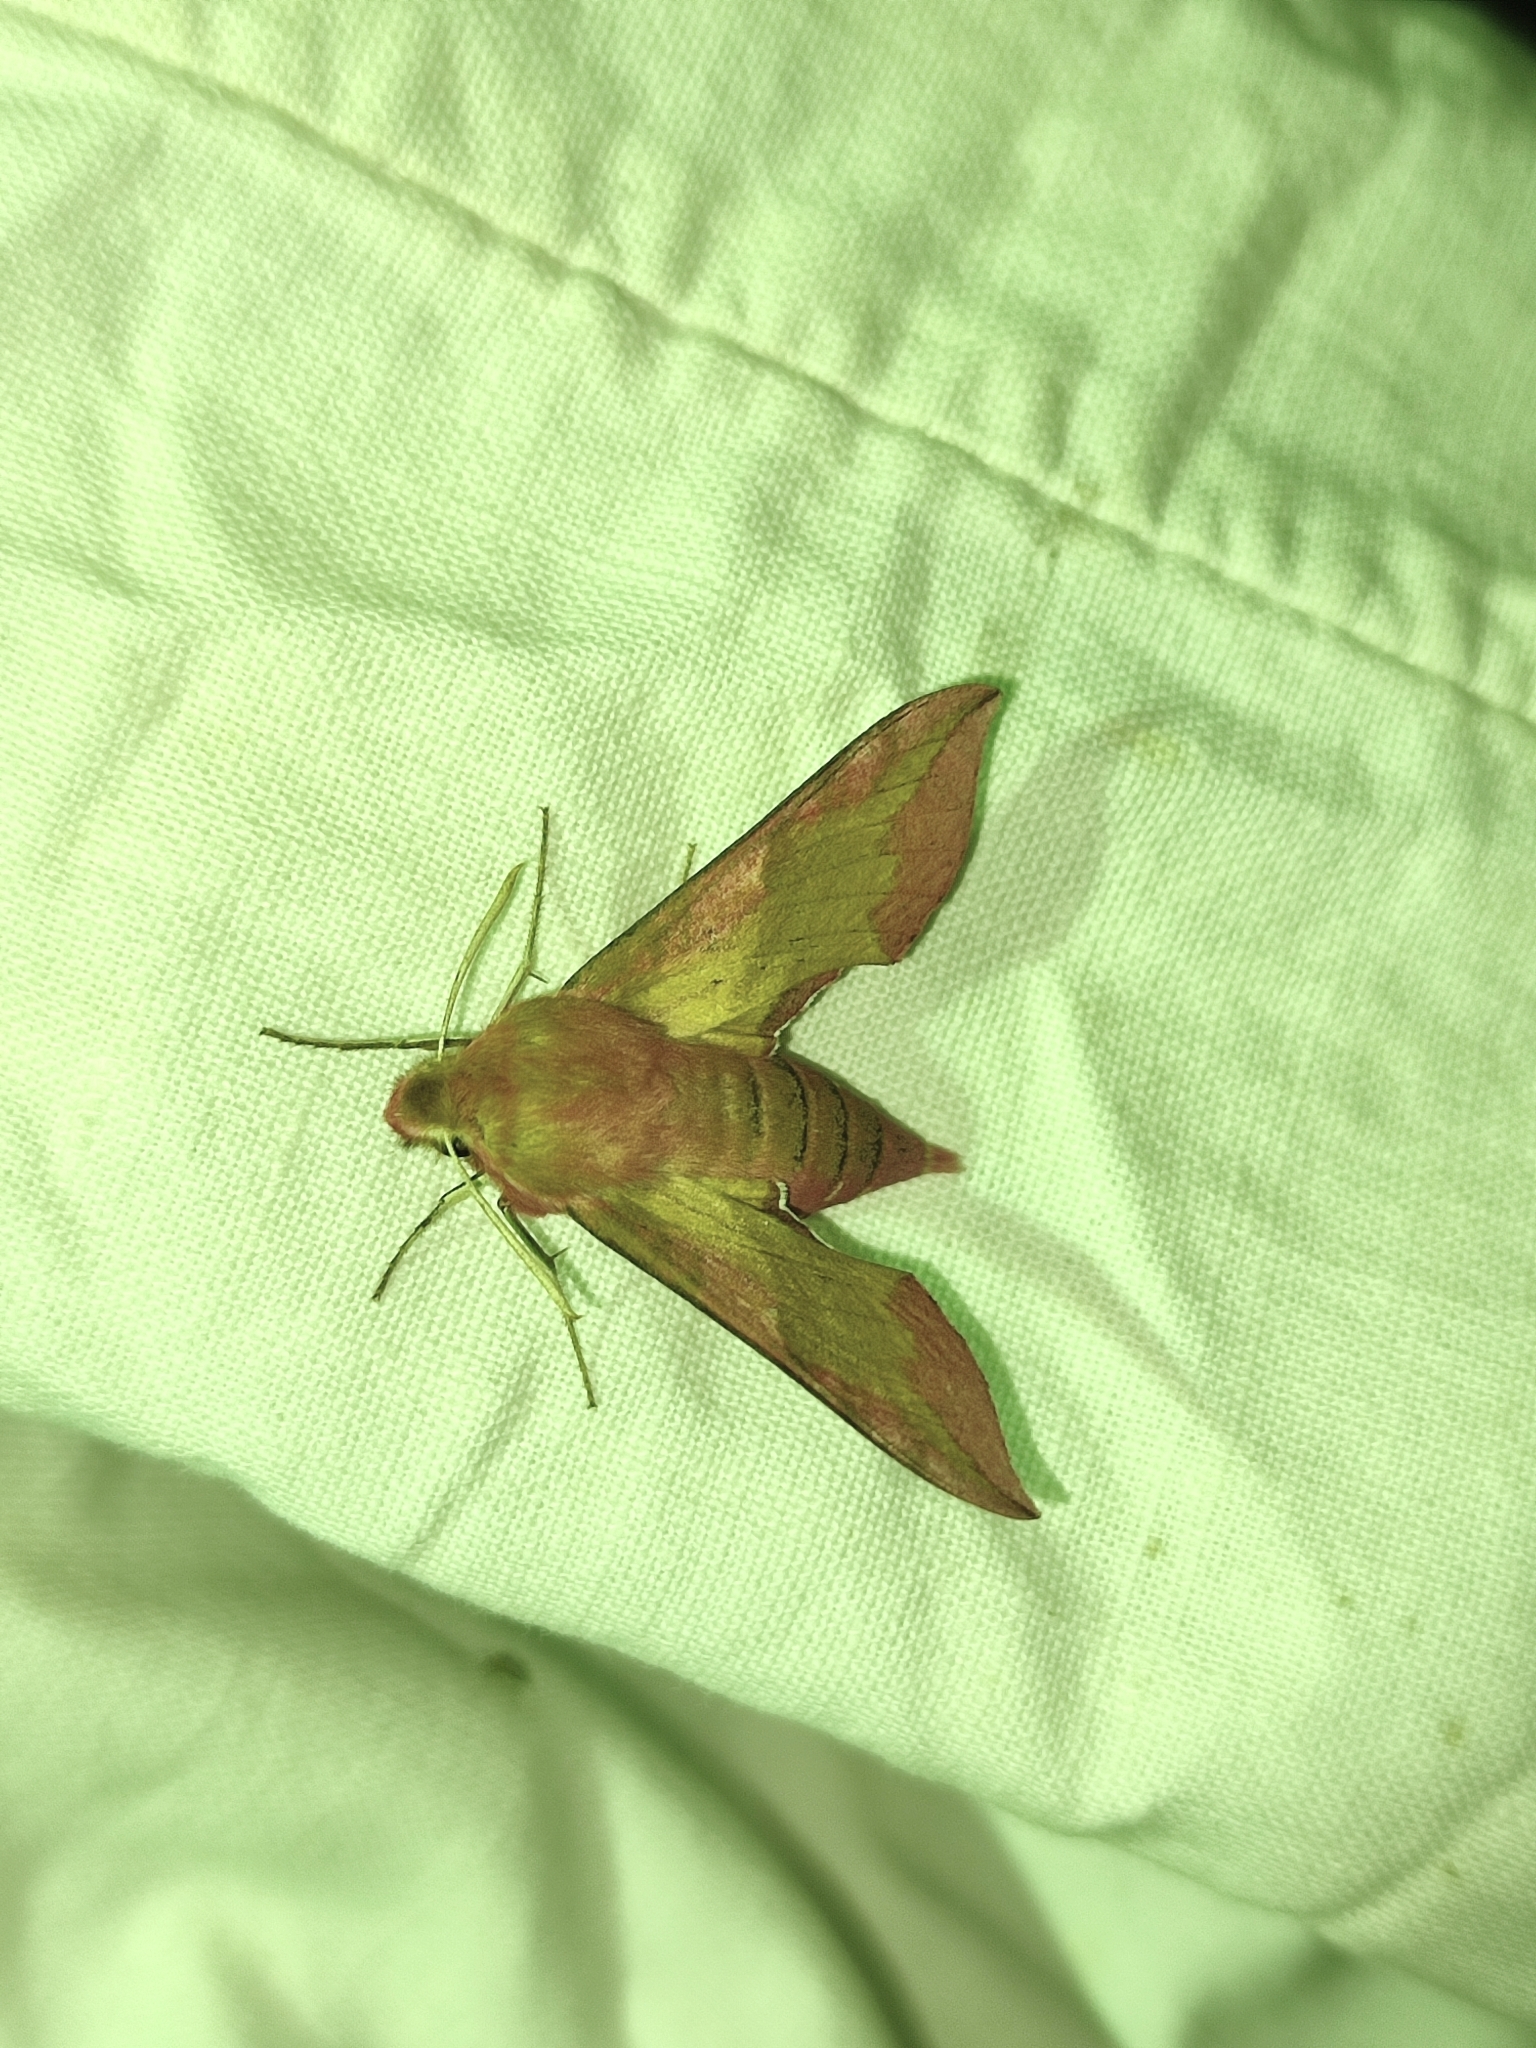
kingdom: Animalia
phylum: Arthropoda
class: Insecta
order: Lepidoptera
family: Sphingidae
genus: Deilephila
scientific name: Deilephila porcellus
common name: Small elephant hawk-moth
